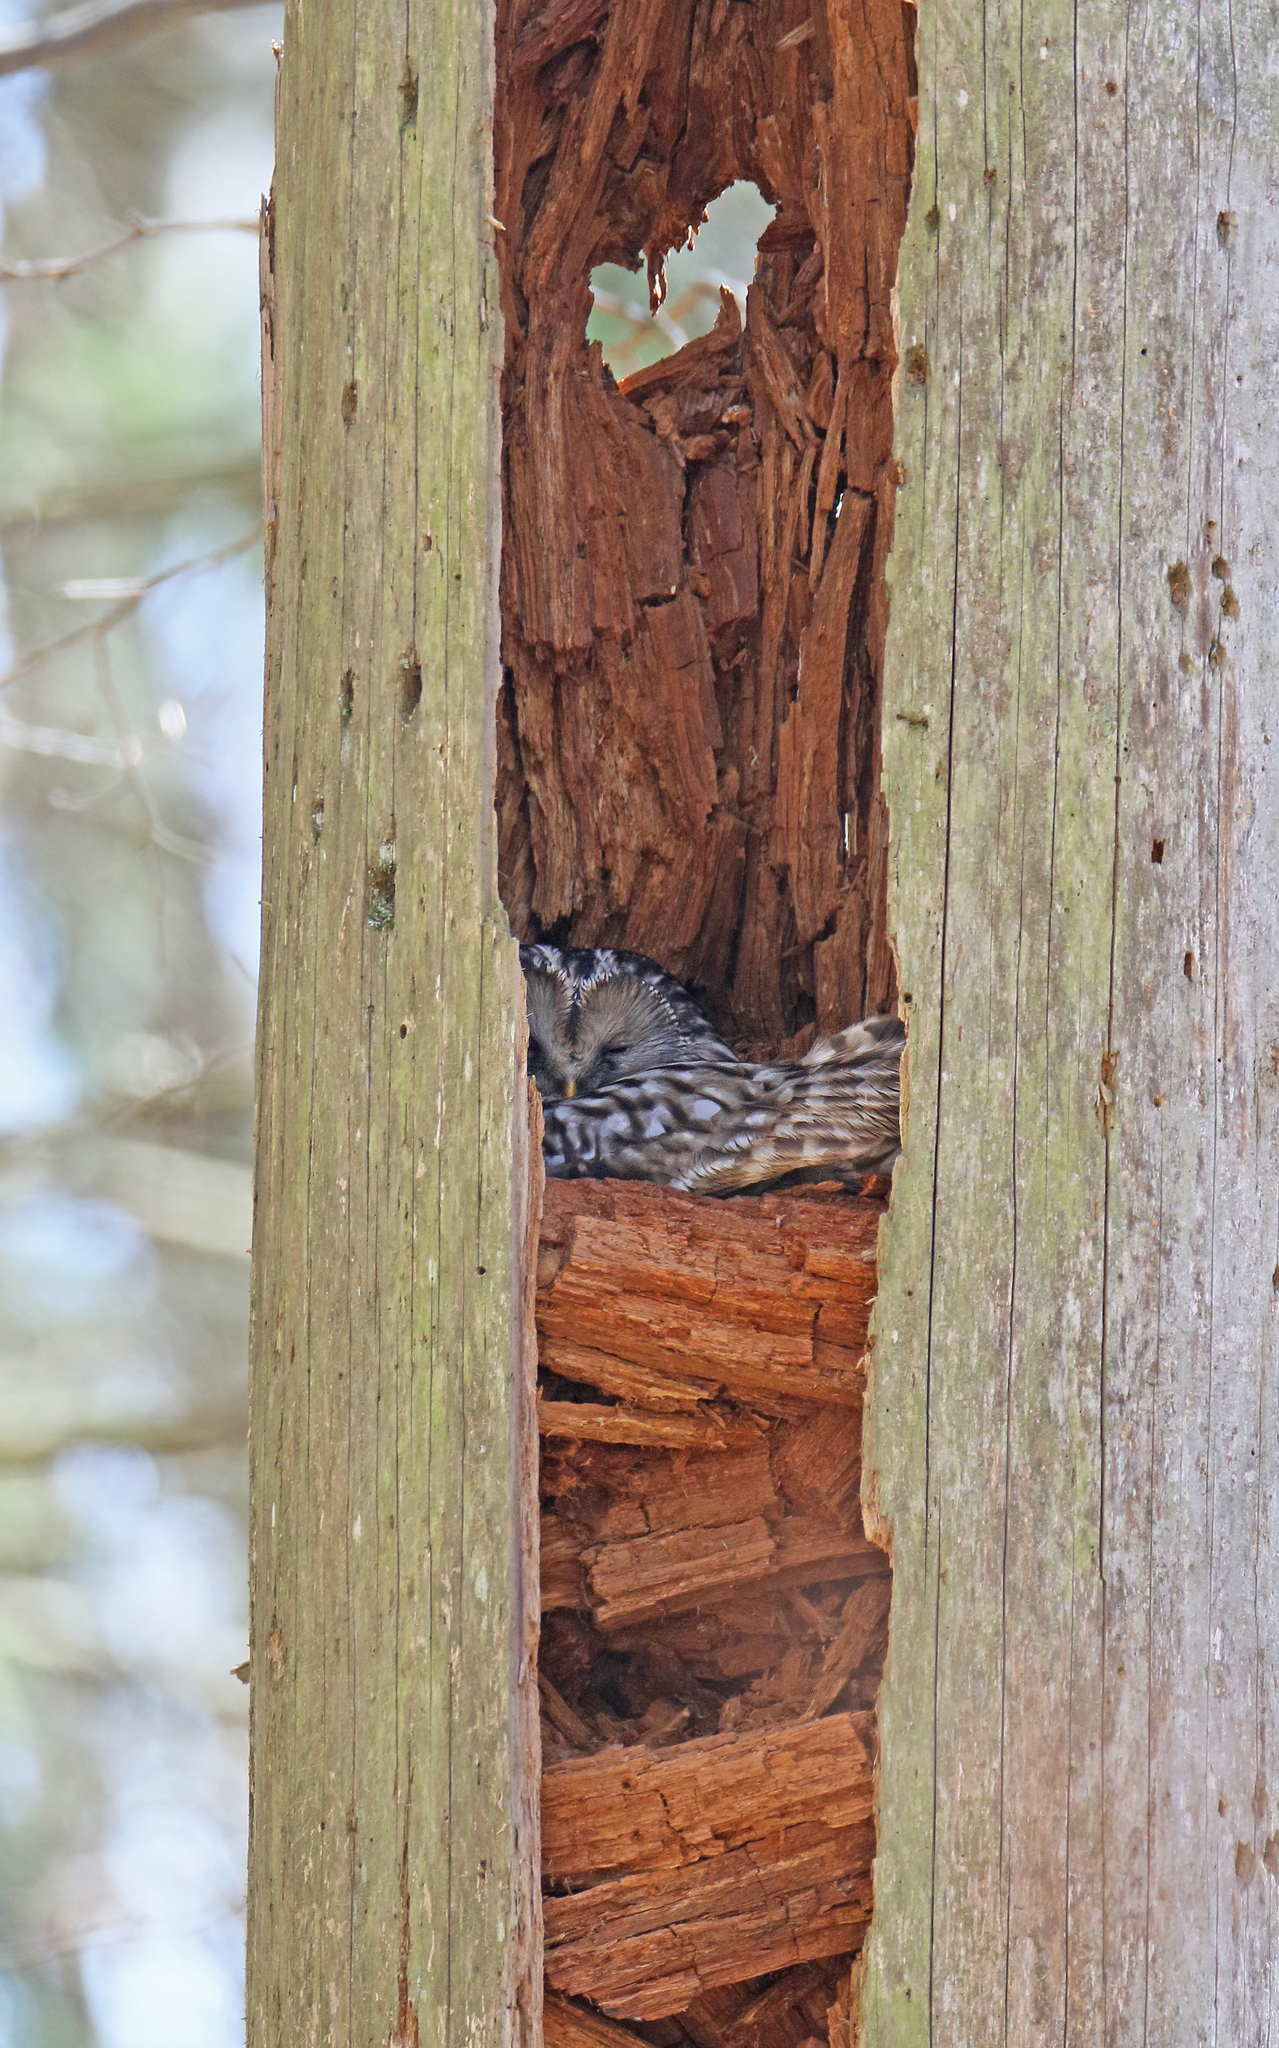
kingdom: Animalia
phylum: Chordata
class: Aves
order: Strigiformes
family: Strigidae
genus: Strix
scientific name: Strix uralensis
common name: Ural owl
